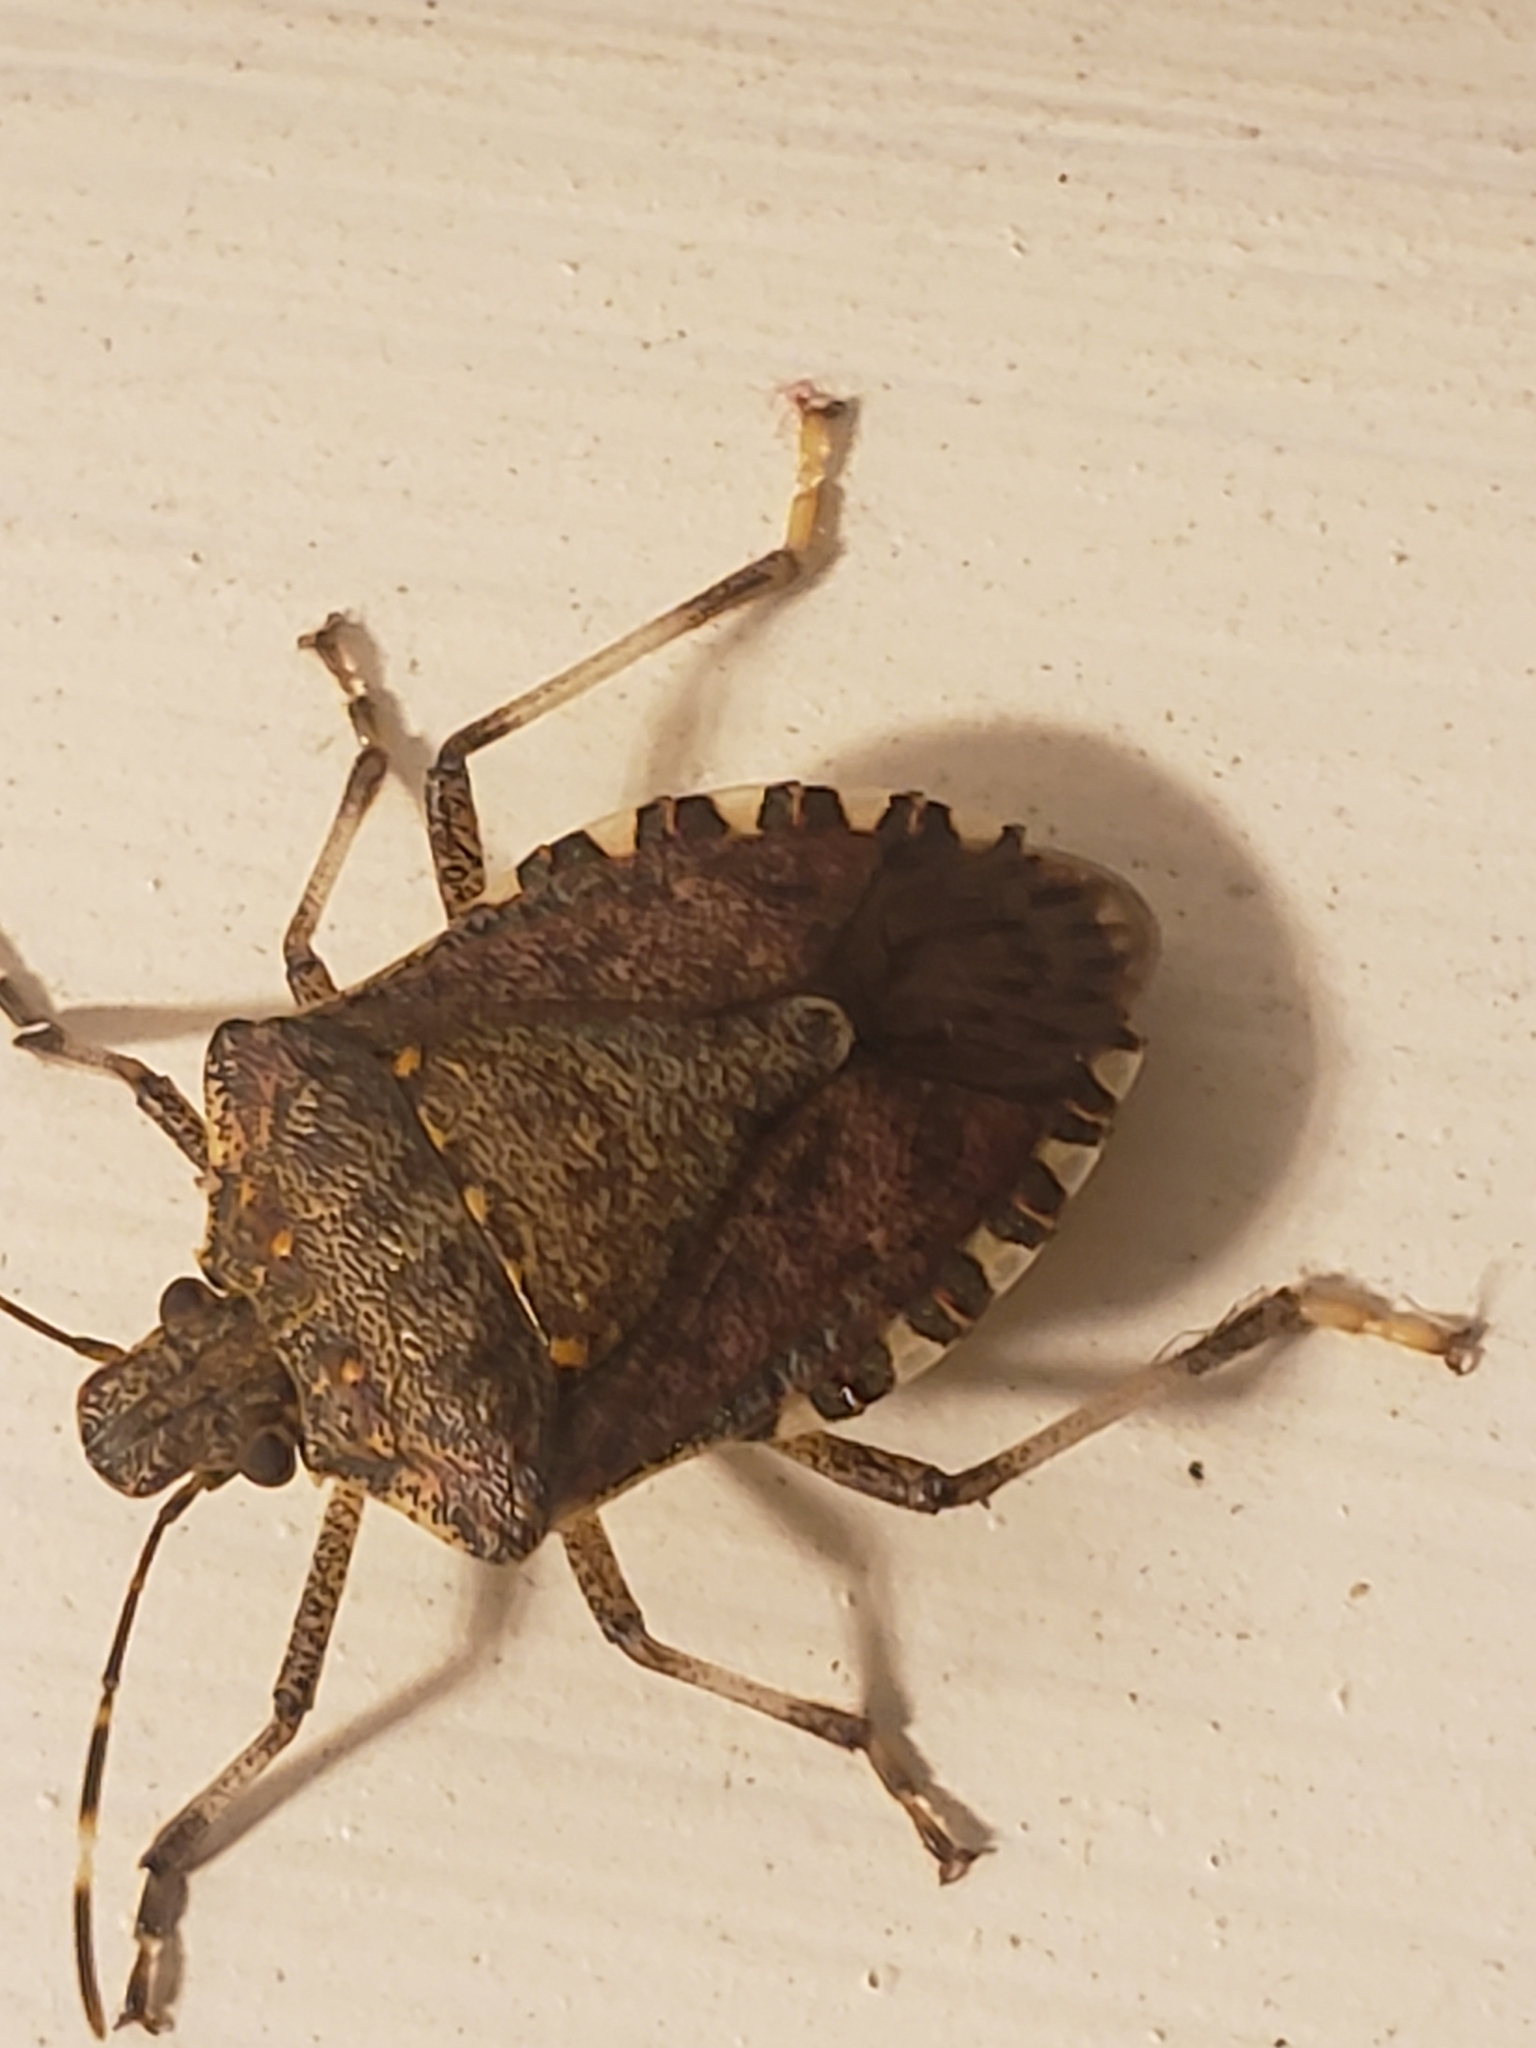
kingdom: Animalia
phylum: Arthropoda
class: Insecta
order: Hemiptera
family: Pentatomidae
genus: Halyomorpha
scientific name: Halyomorpha halys
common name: Brown marmorated stink bug
